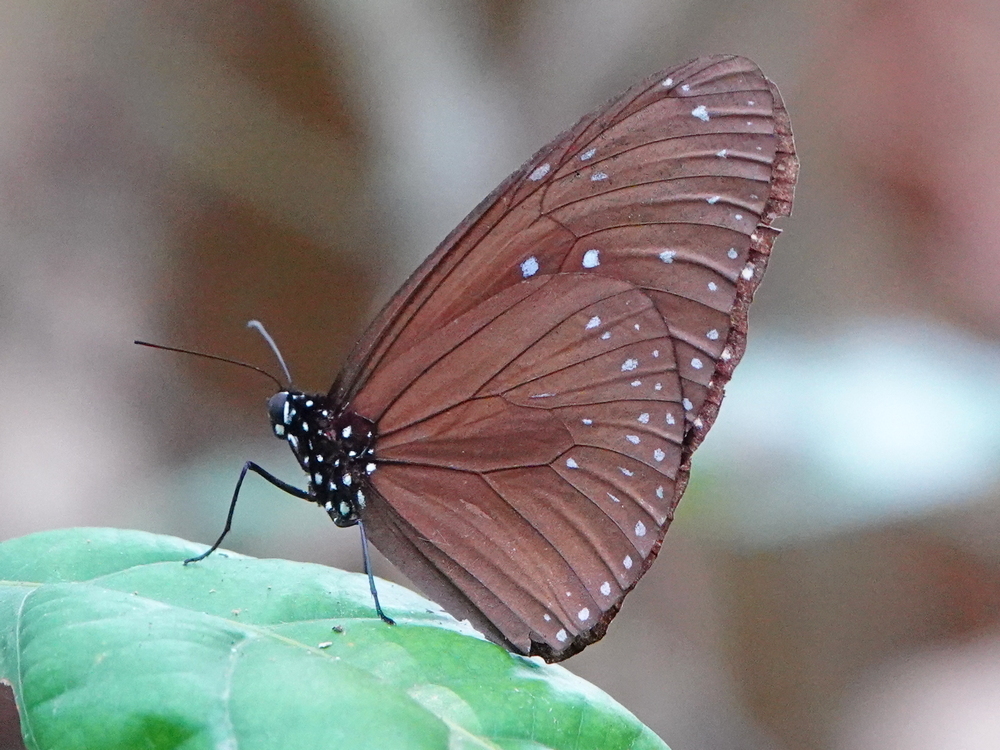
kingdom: Animalia
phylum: Arthropoda
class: Insecta
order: Lepidoptera
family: Nymphalidae
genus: Euploea
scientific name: Euploea mulciber
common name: Striped blue crow butterfly
